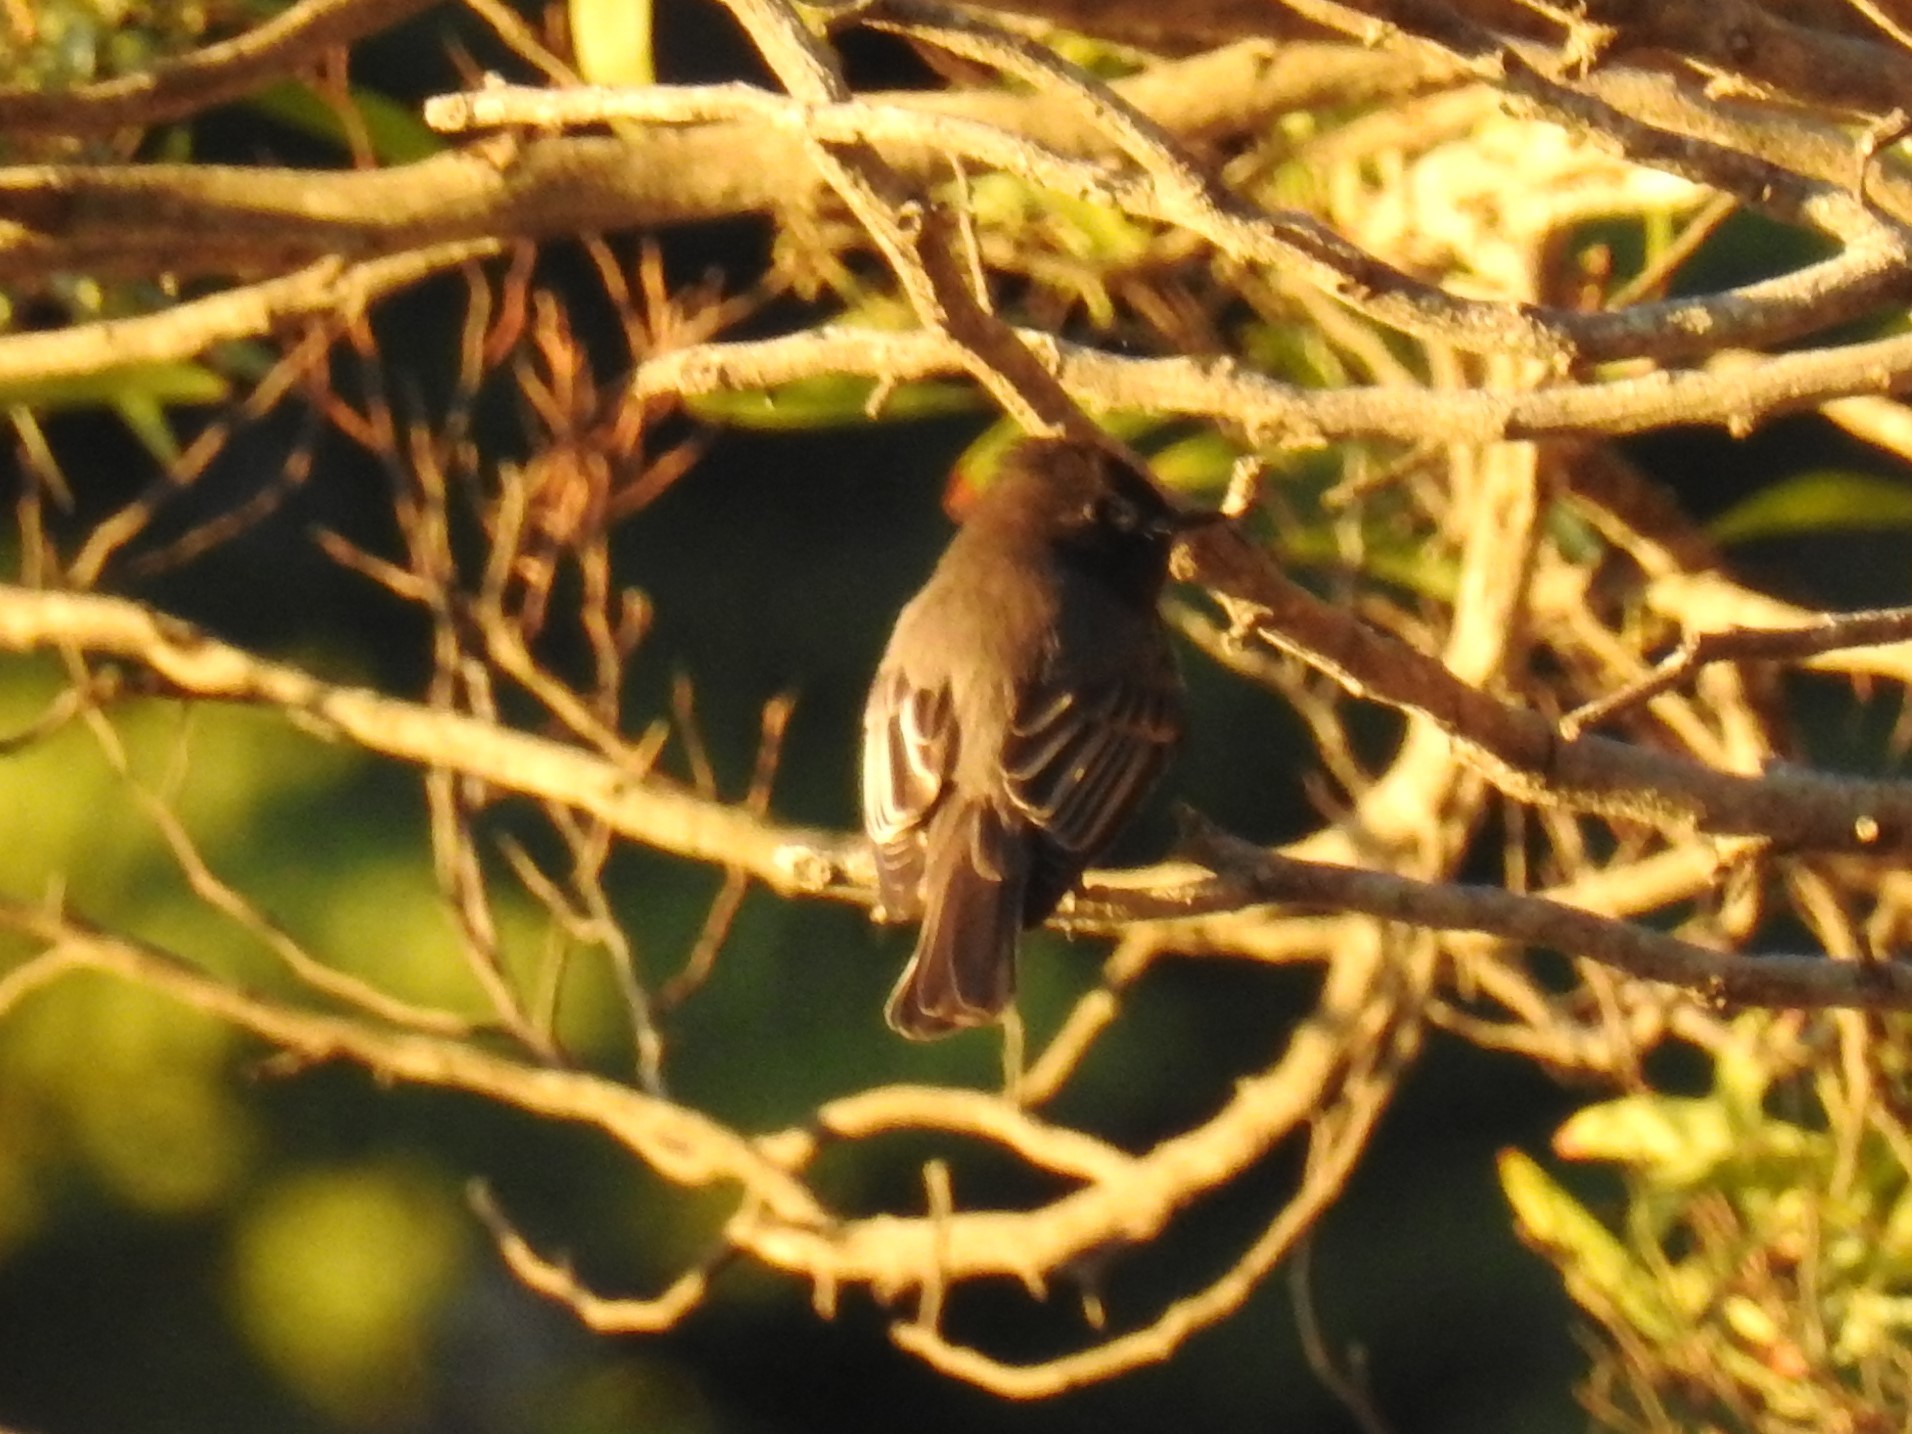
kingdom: Animalia
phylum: Chordata
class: Aves
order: Passeriformes
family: Tyrannidae
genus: Sayornis
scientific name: Sayornis nigricans
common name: Black phoebe
